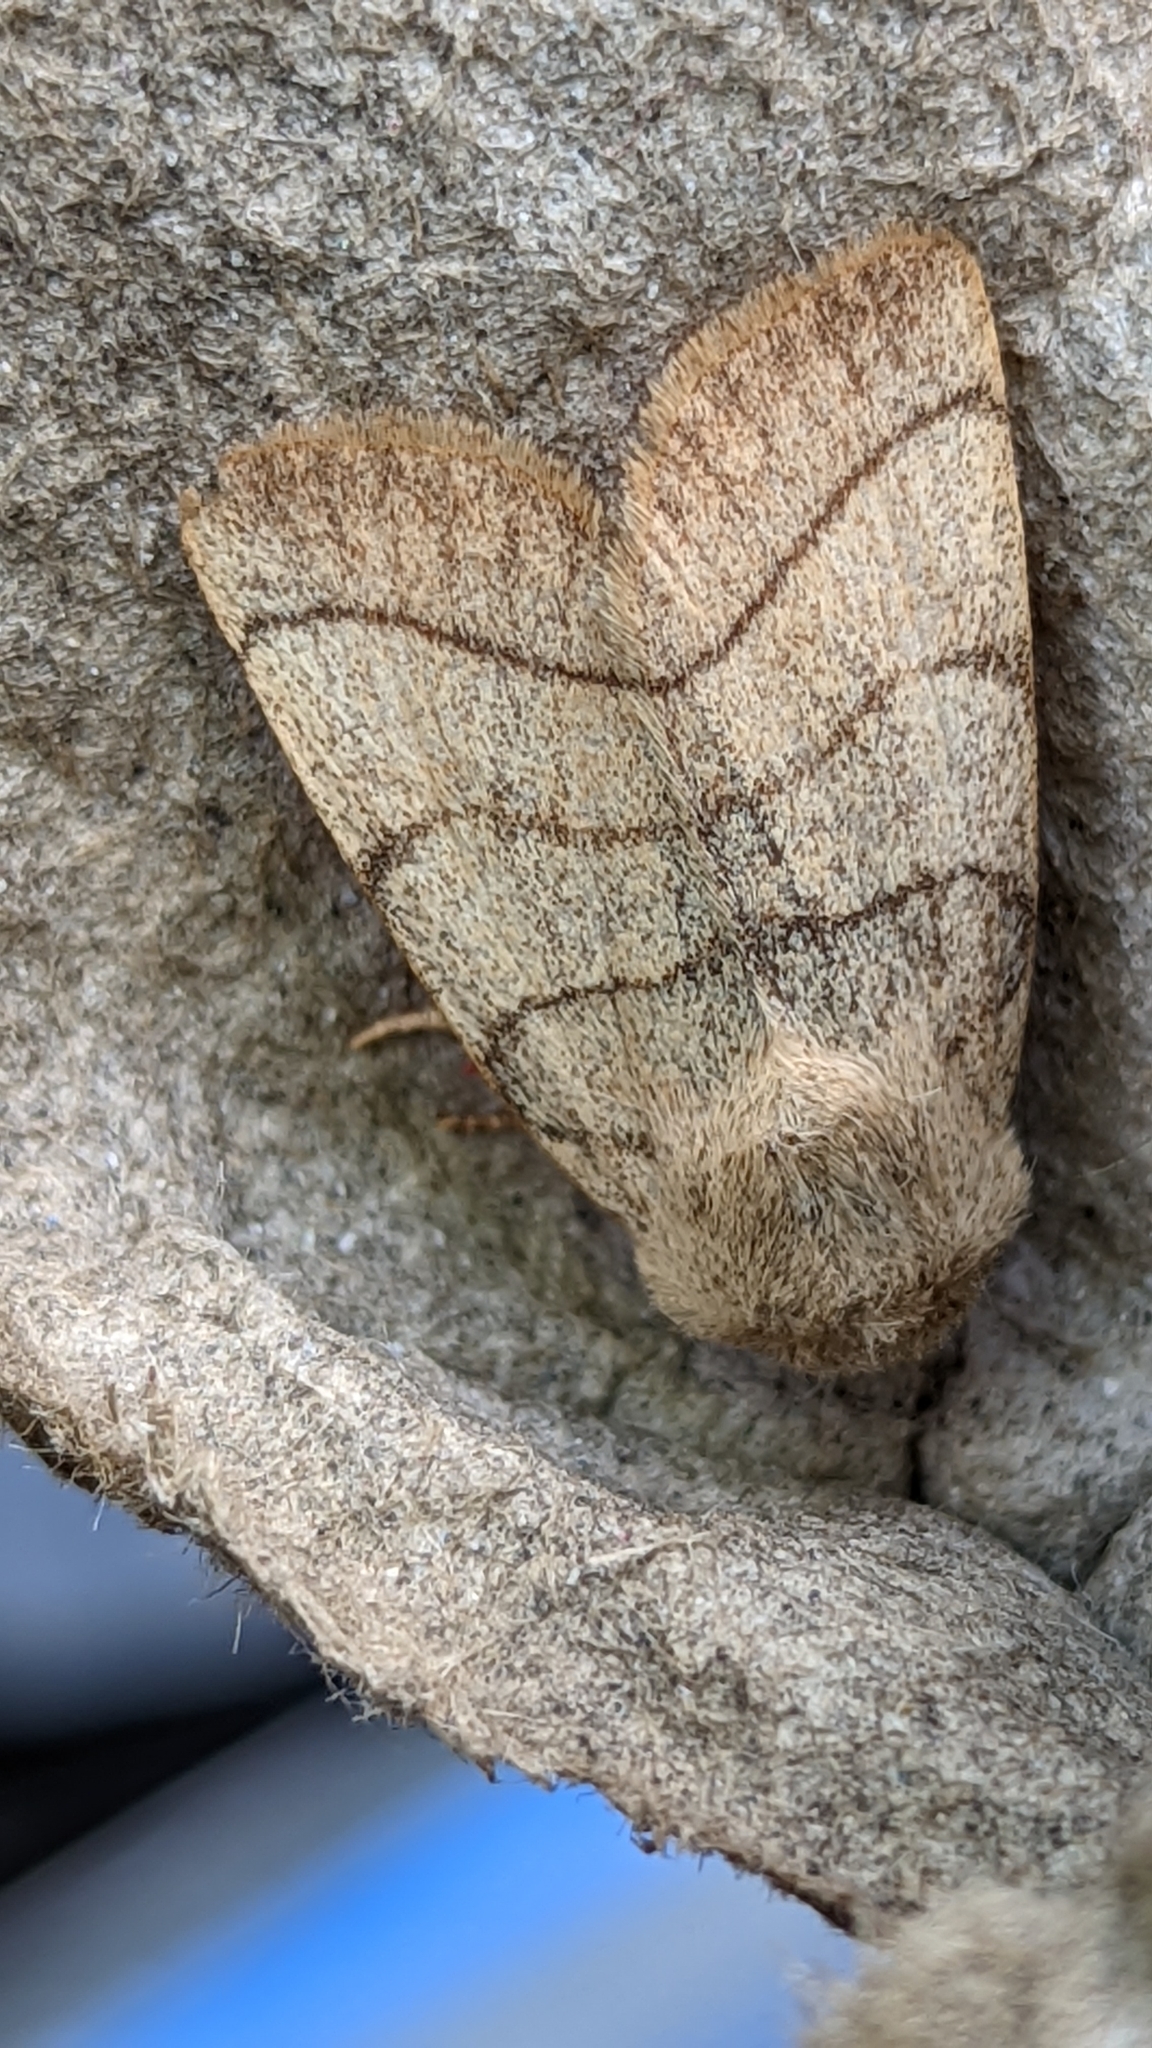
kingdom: Animalia
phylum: Arthropoda
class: Insecta
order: Lepidoptera
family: Noctuidae
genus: Charanyca
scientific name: Charanyca trigrammica
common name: Treble lines
